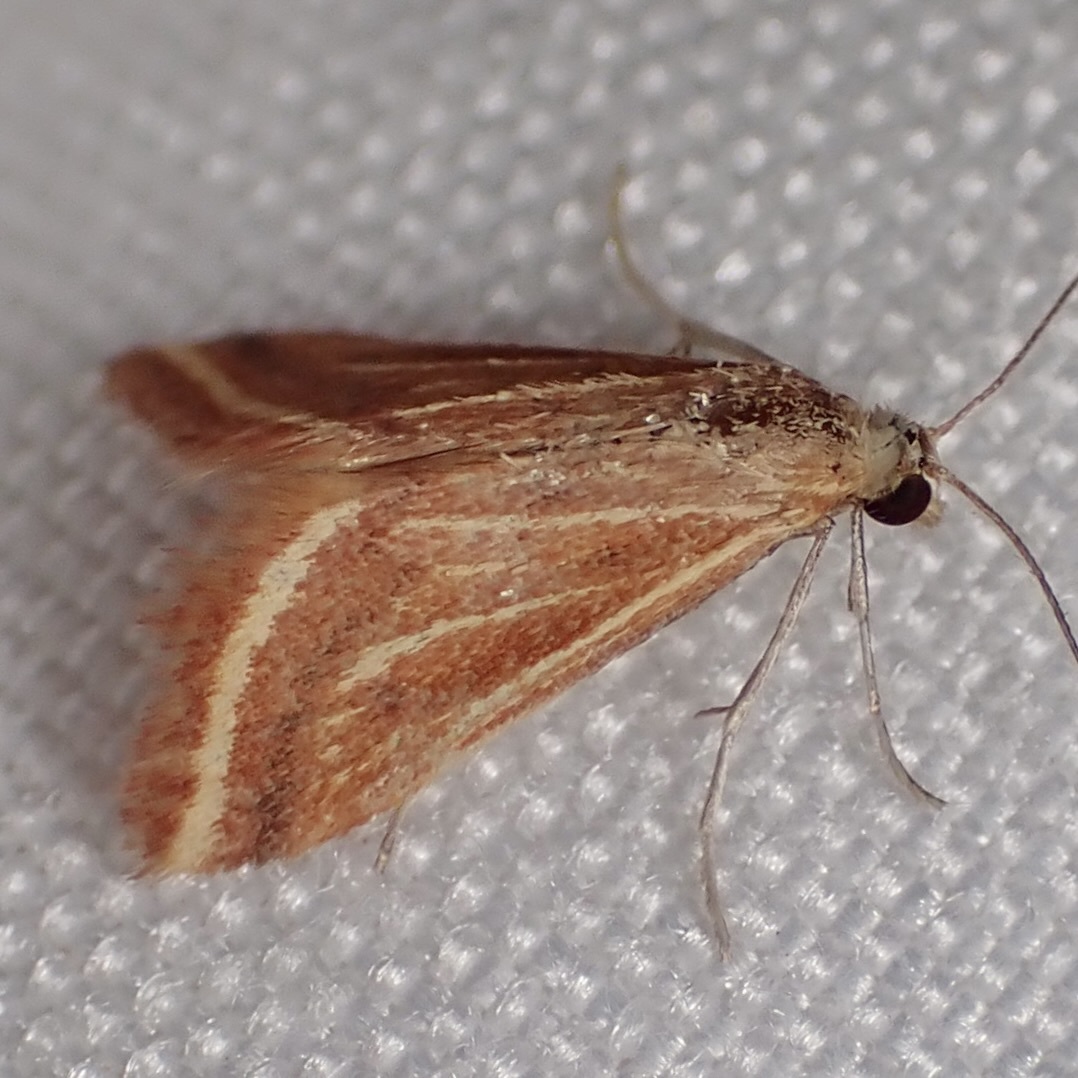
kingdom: Animalia
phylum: Arthropoda
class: Insecta
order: Lepidoptera
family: Crambidae
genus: Microtheoris
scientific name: Microtheoris ophionalis
